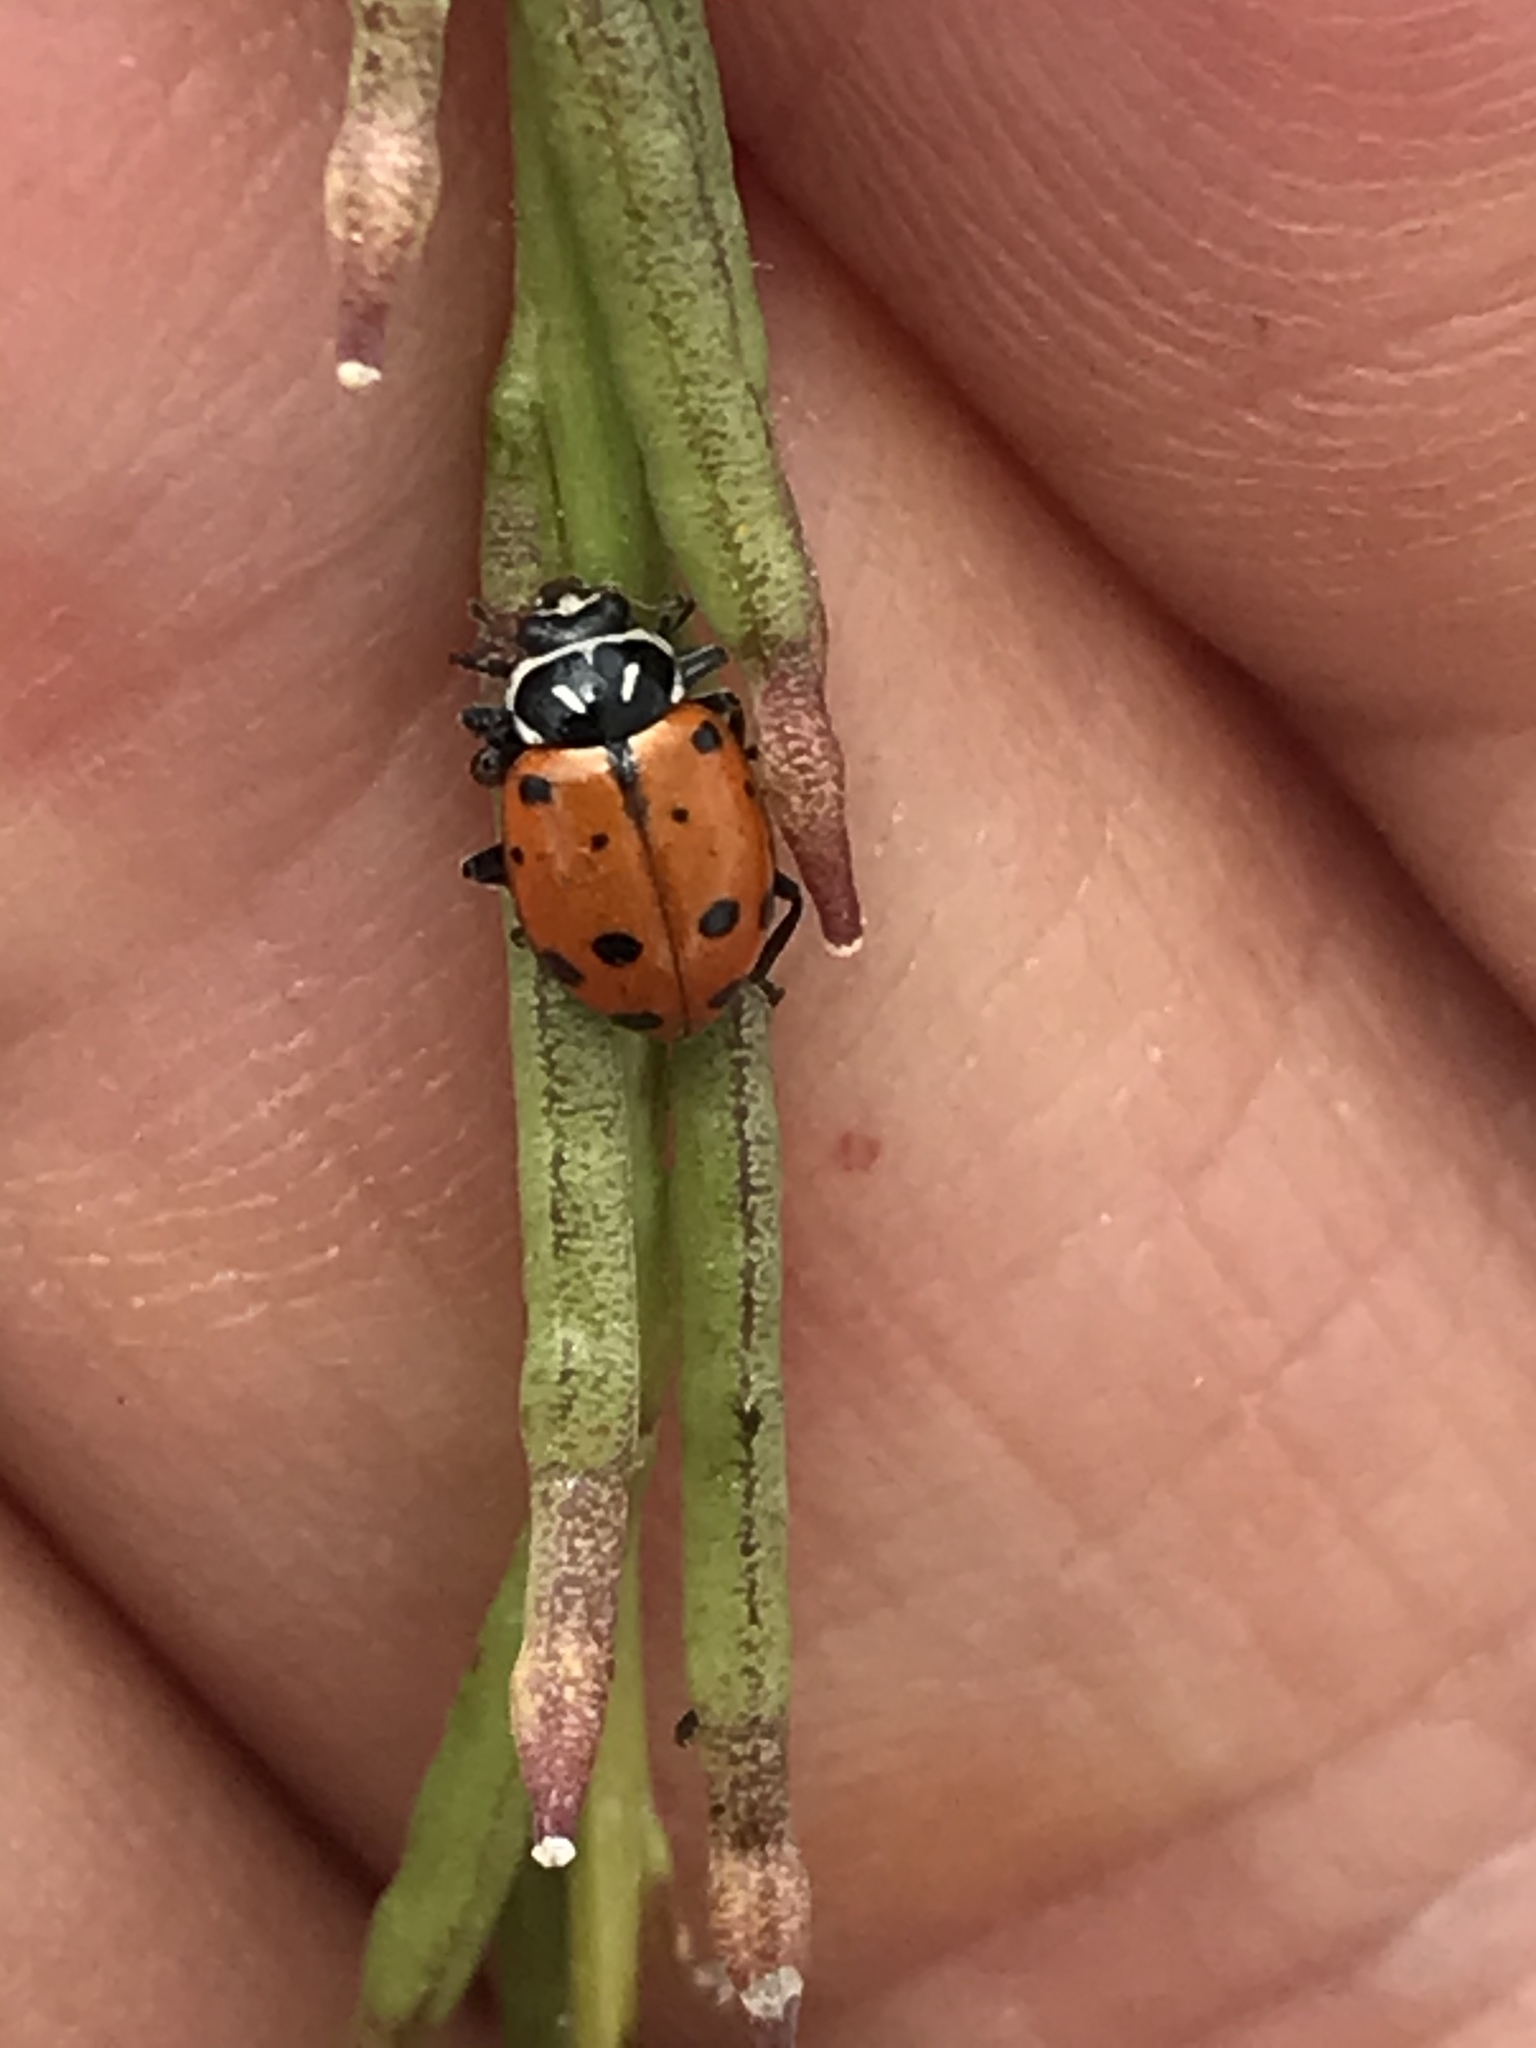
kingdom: Animalia
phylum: Arthropoda
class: Insecta
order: Coleoptera
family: Coccinellidae
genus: Hippodamia
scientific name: Hippodamia convergens
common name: Convergent lady beetle
